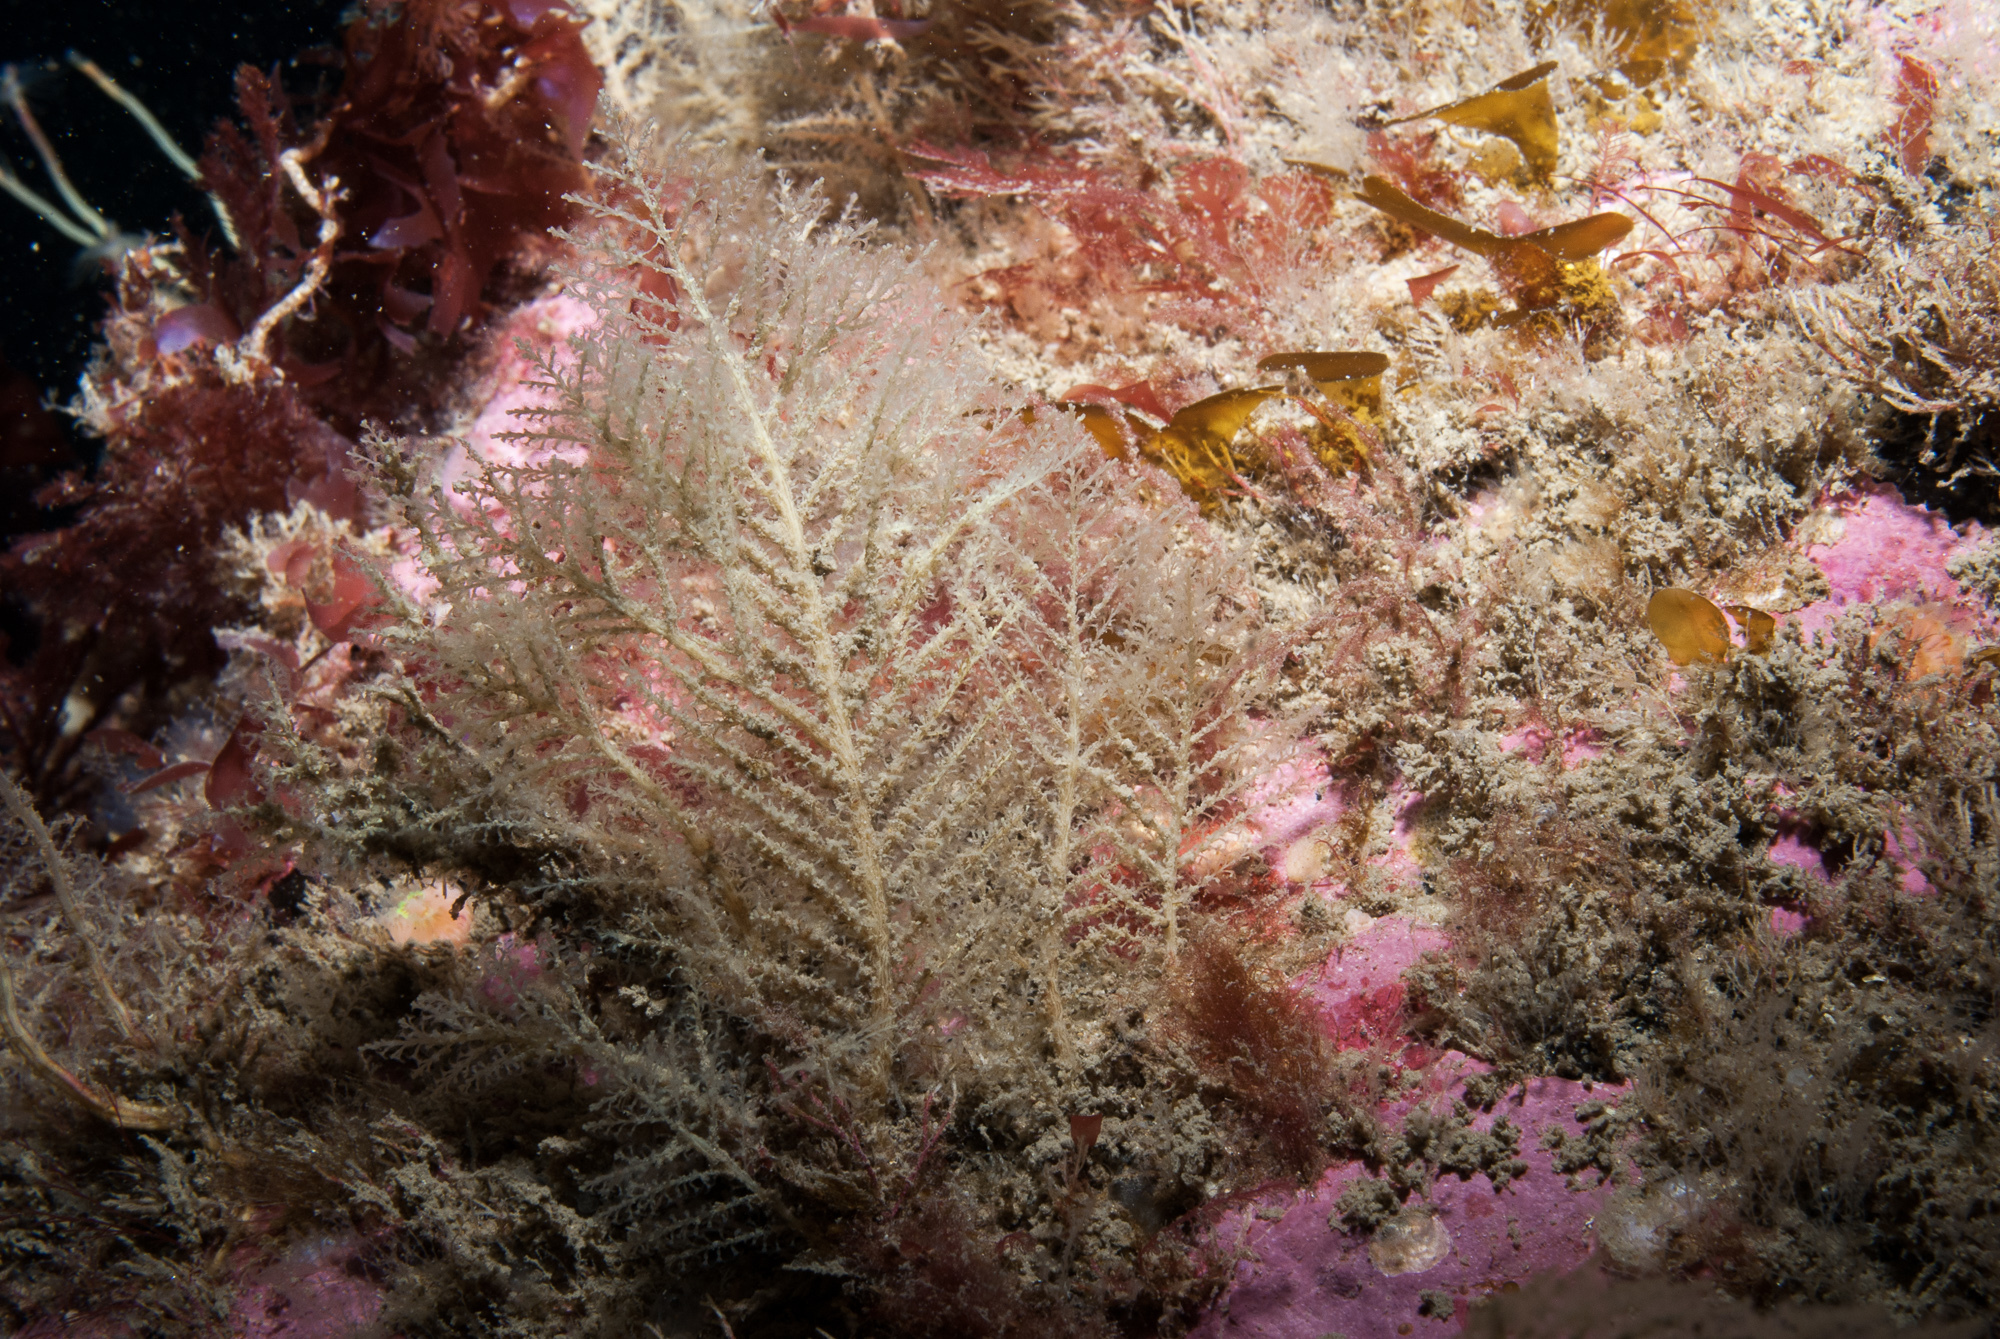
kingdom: Animalia
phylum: Cnidaria
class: Hydrozoa
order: Leptothecata
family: Haleciidae
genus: Halecium
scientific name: Halecium halecinum
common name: Herringbone hydroid
